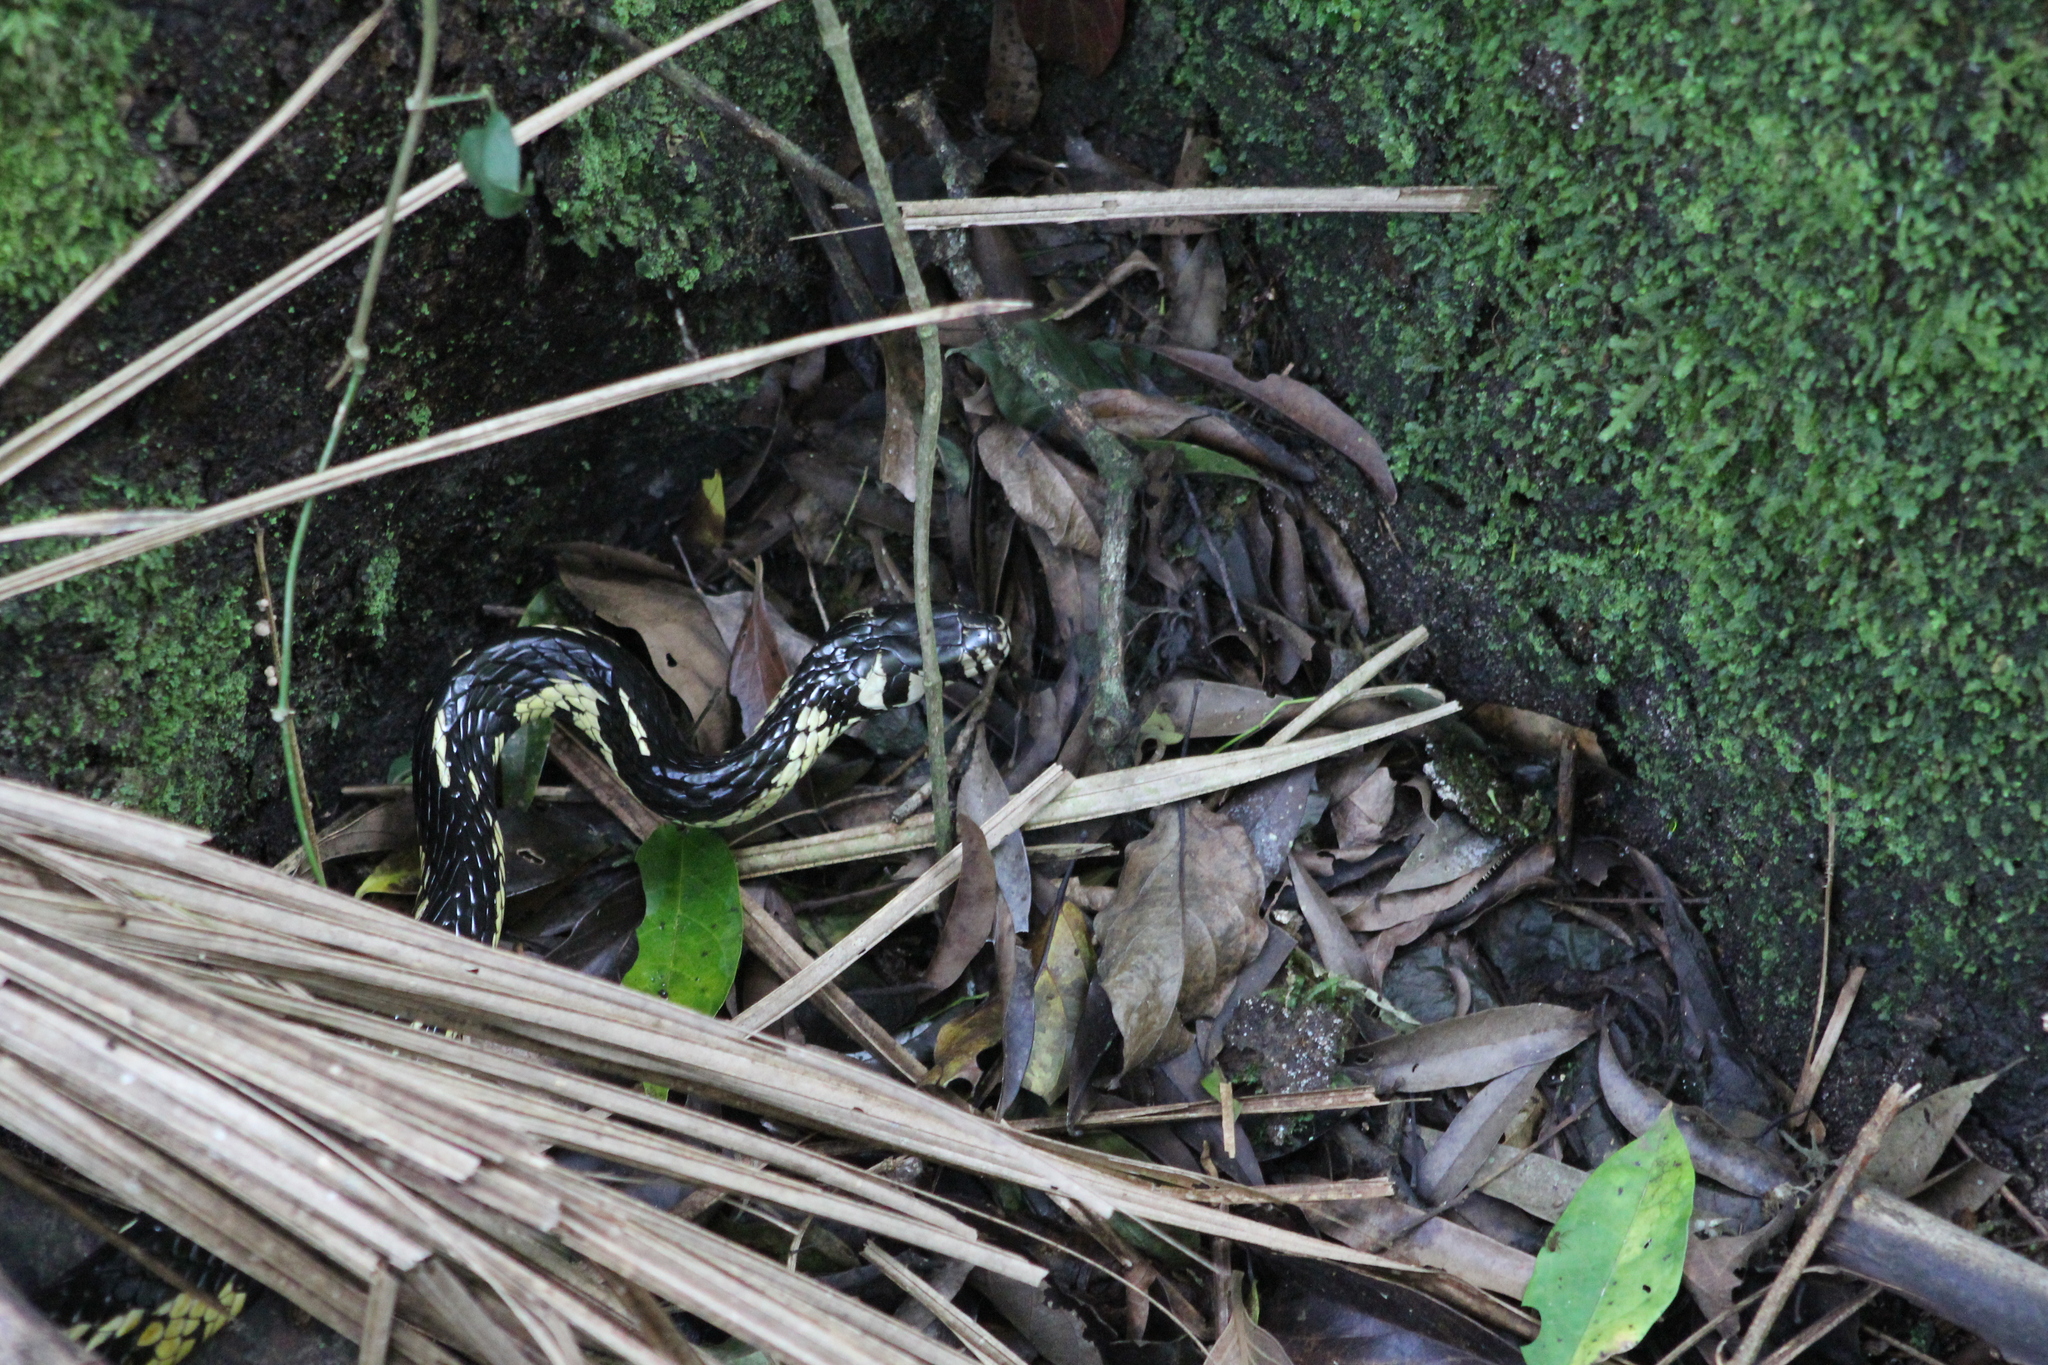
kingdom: Animalia
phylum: Chordata
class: Squamata
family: Colubridae
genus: Spilotes
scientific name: Spilotes pullatus
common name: Chicken snake
